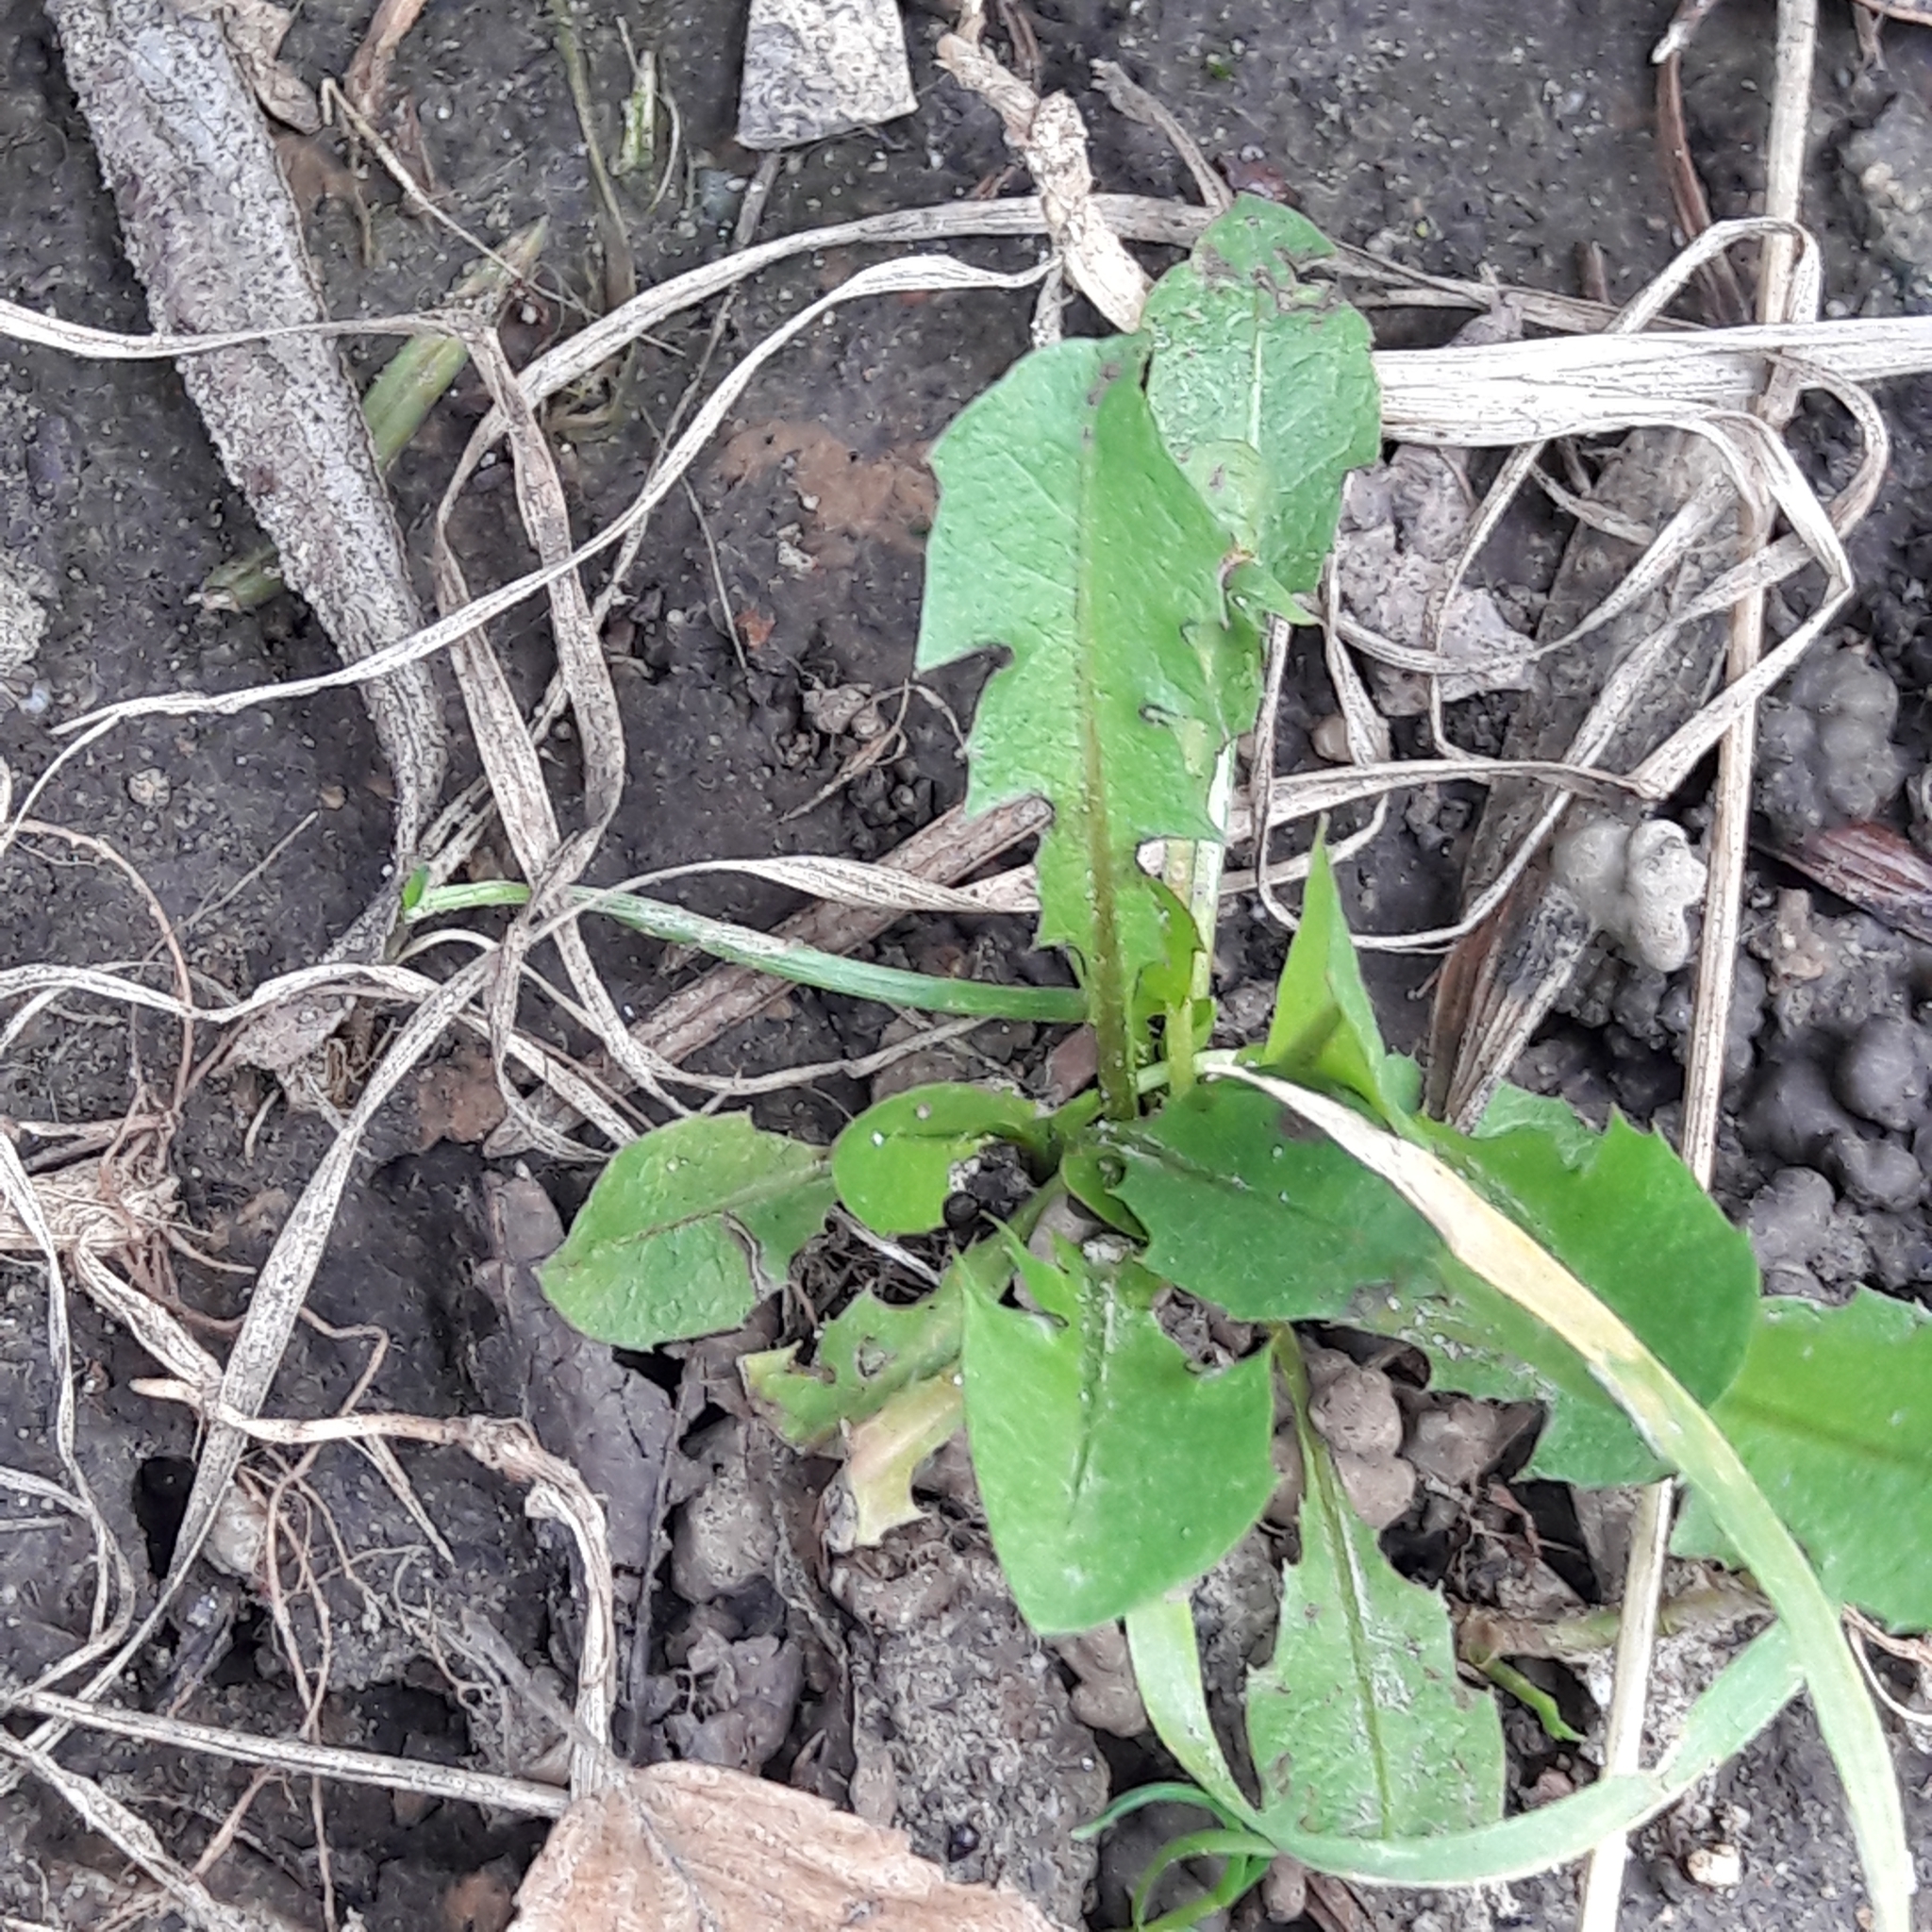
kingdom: Plantae
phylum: Tracheophyta
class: Magnoliopsida
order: Asterales
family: Asteraceae
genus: Taraxacum
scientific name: Taraxacum officinale
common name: Common dandelion
